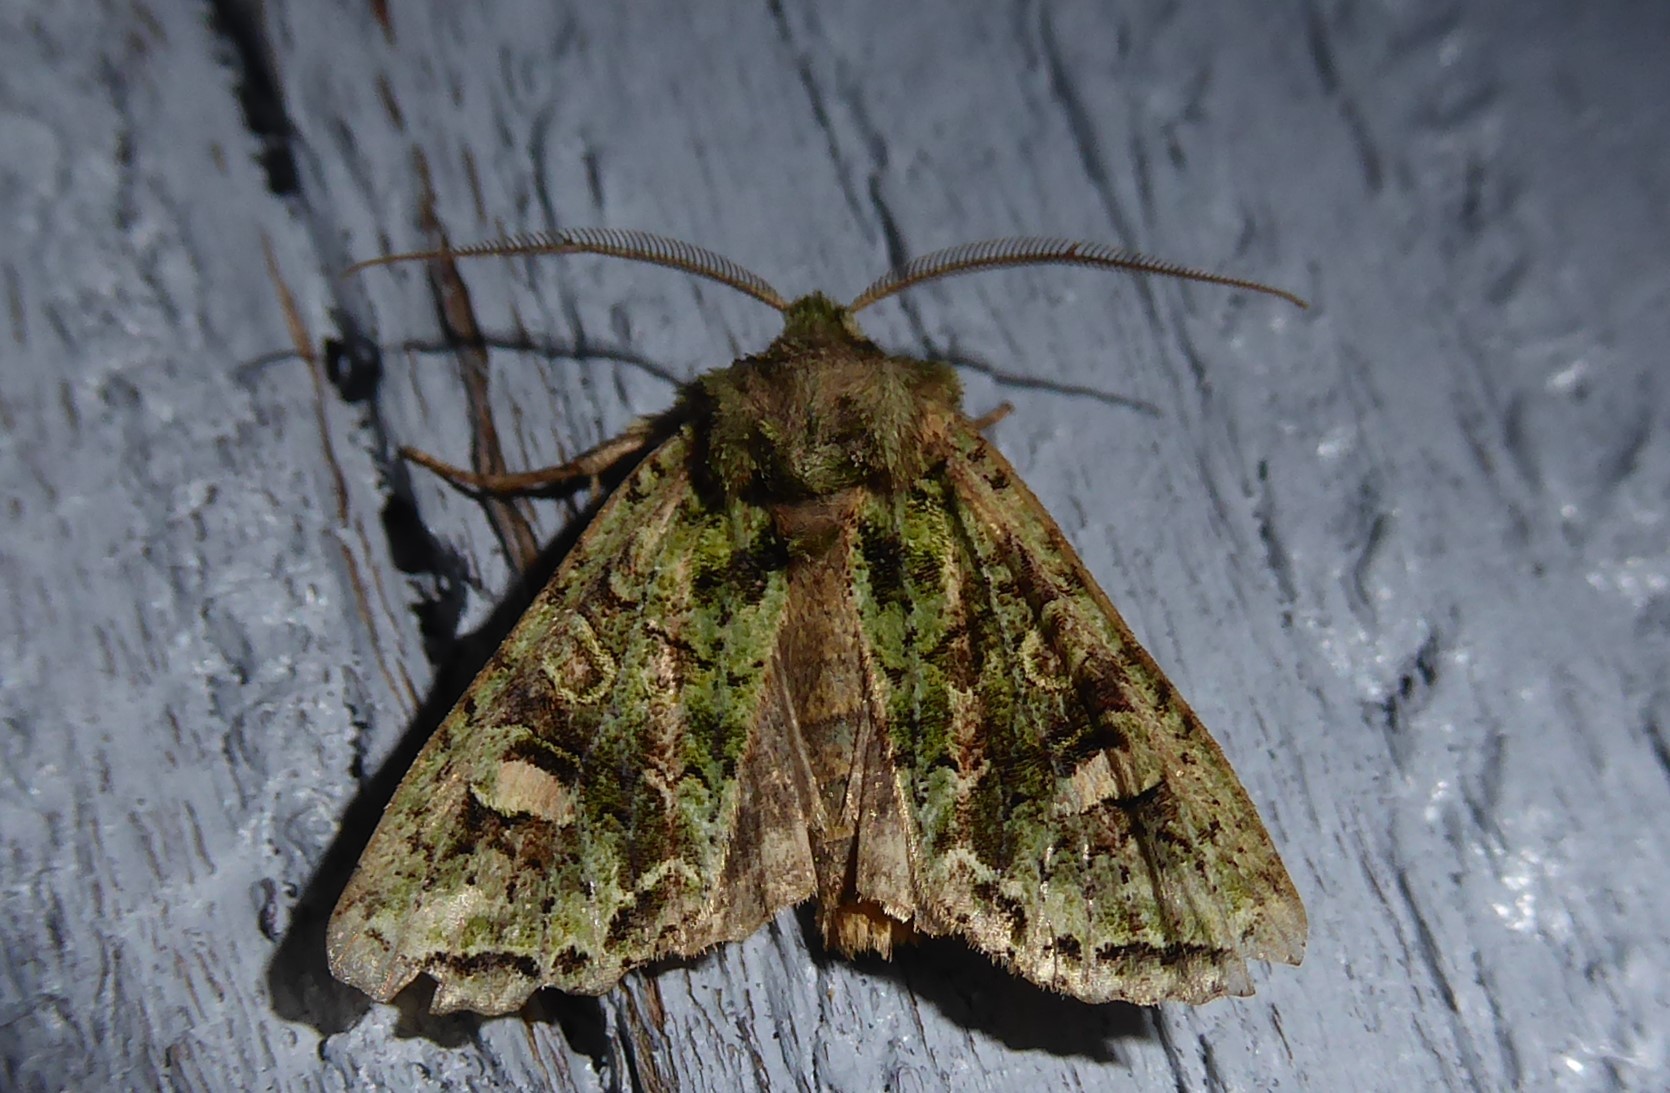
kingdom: Animalia
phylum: Arthropoda
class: Insecta
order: Lepidoptera
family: Noctuidae
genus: Ichneutica
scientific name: Ichneutica
